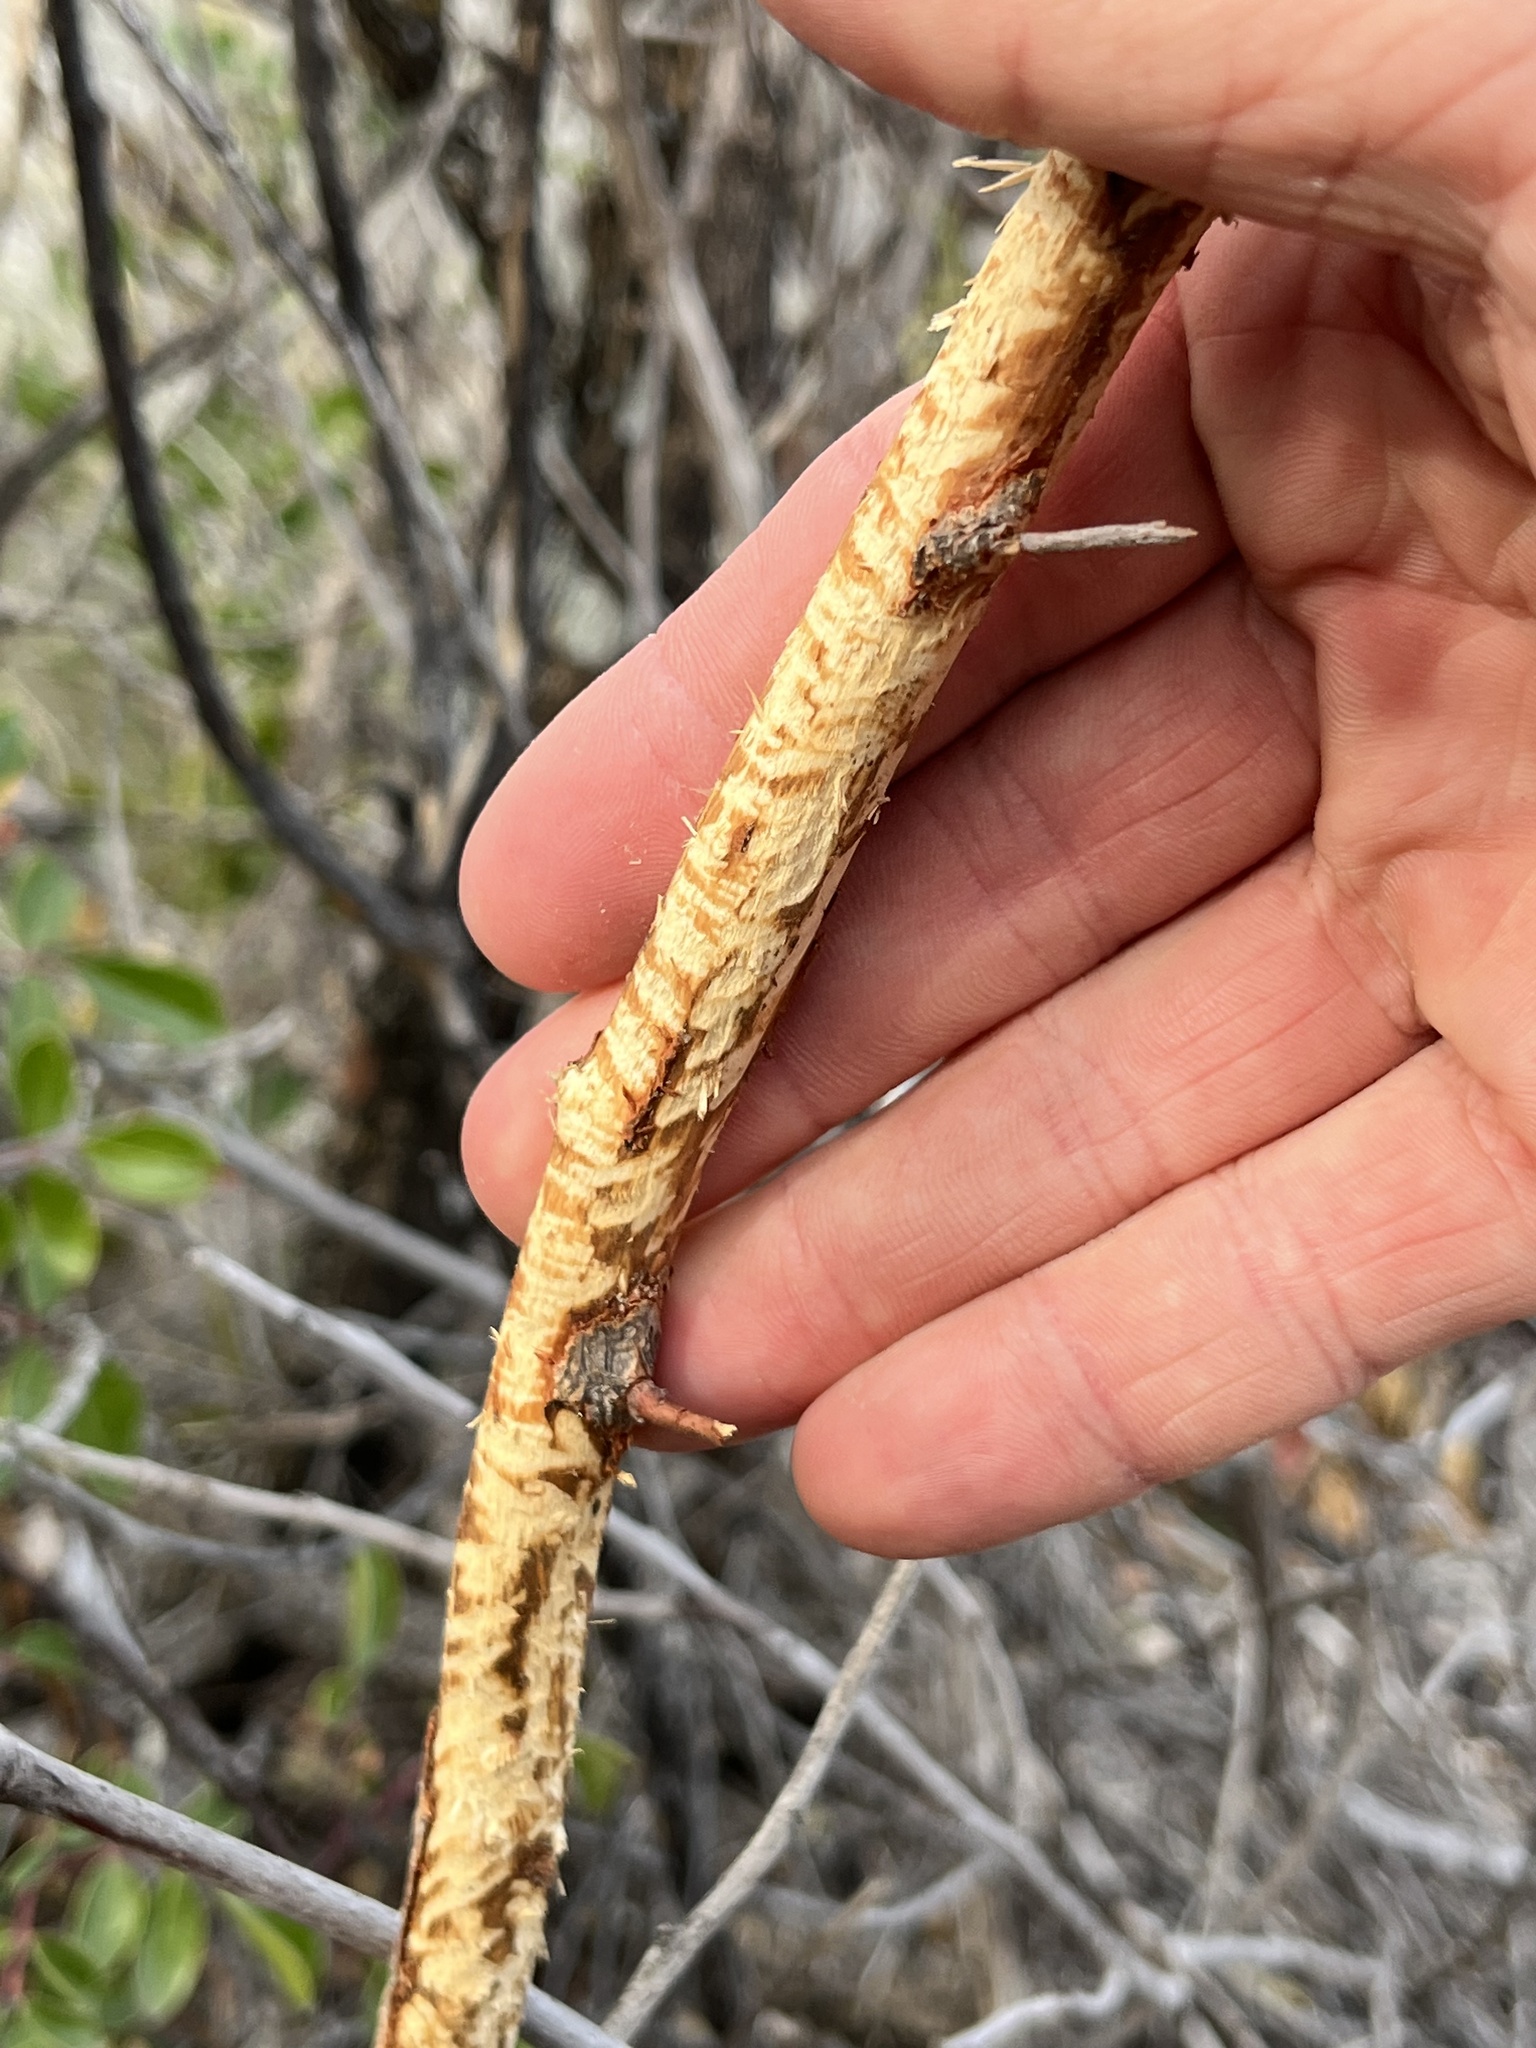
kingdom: Animalia
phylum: Chordata
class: Mammalia
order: Rodentia
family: Erethizontidae
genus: Erethizon
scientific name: Erethizon dorsatus
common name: North american porcupine
